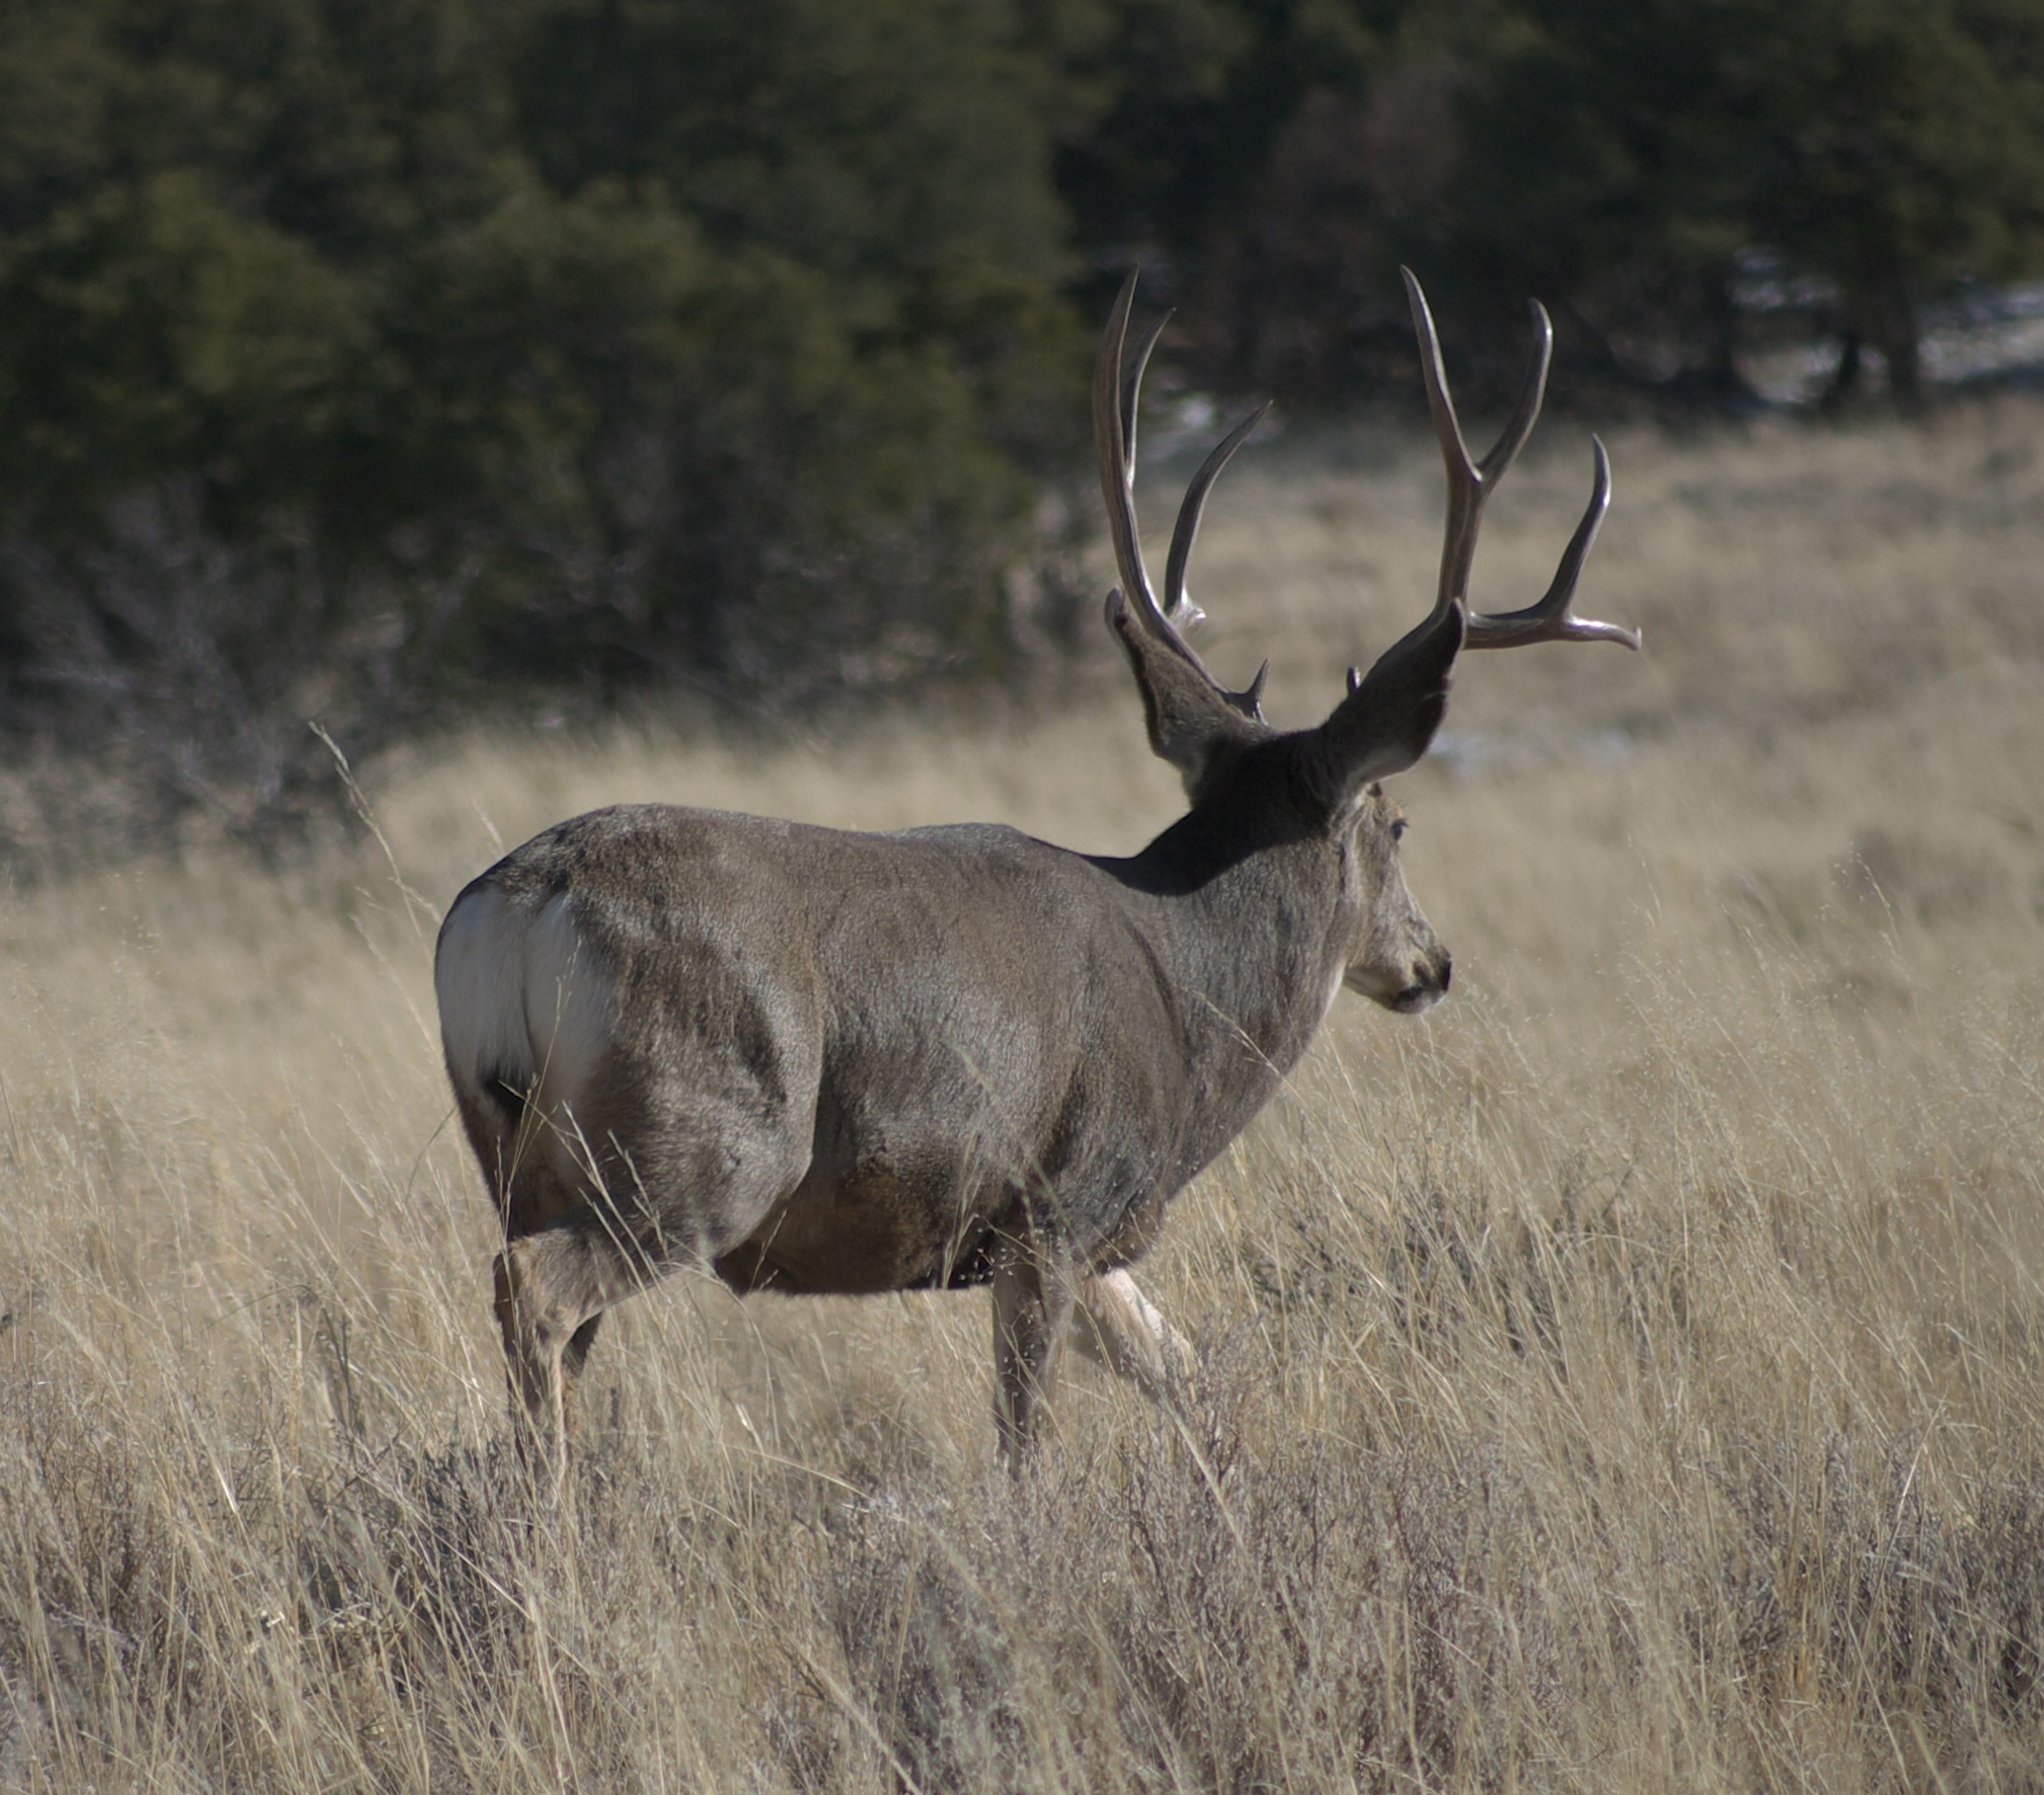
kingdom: Animalia
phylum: Chordata
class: Mammalia
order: Artiodactyla
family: Cervidae
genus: Odocoileus
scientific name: Odocoileus hemionus
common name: Mule deer
